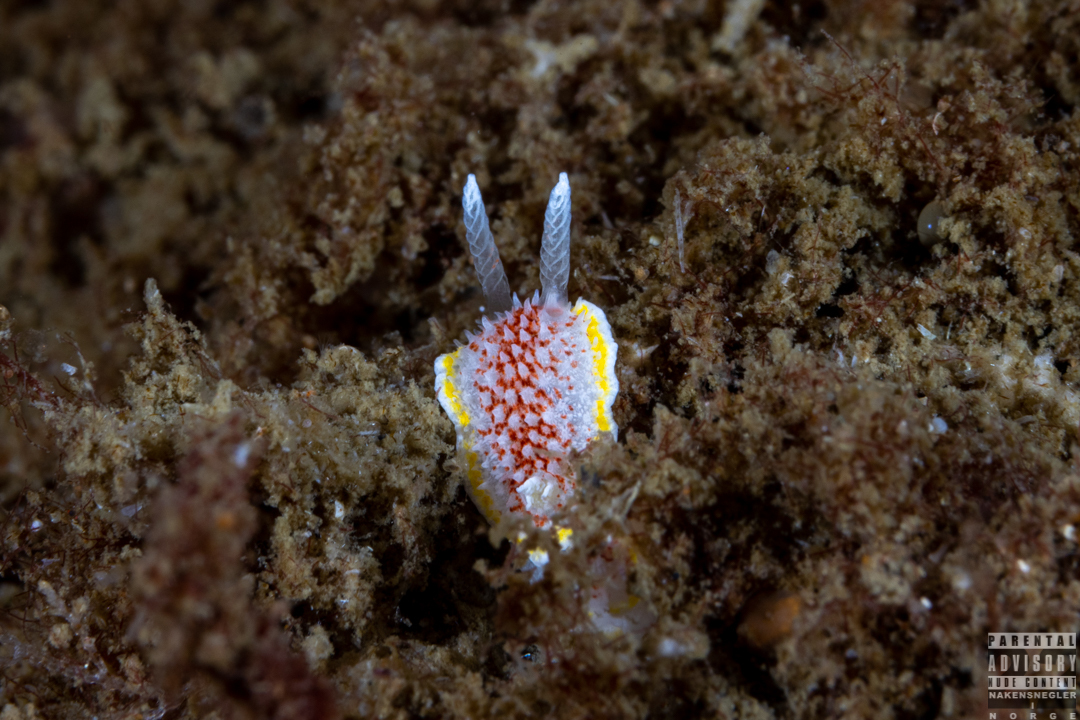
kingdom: Animalia
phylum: Mollusca
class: Gastropoda
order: Nudibranchia
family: Calycidorididae
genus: Diaphorodoris
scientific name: Diaphorodoris luteocincta
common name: Fried egg nudibranch
